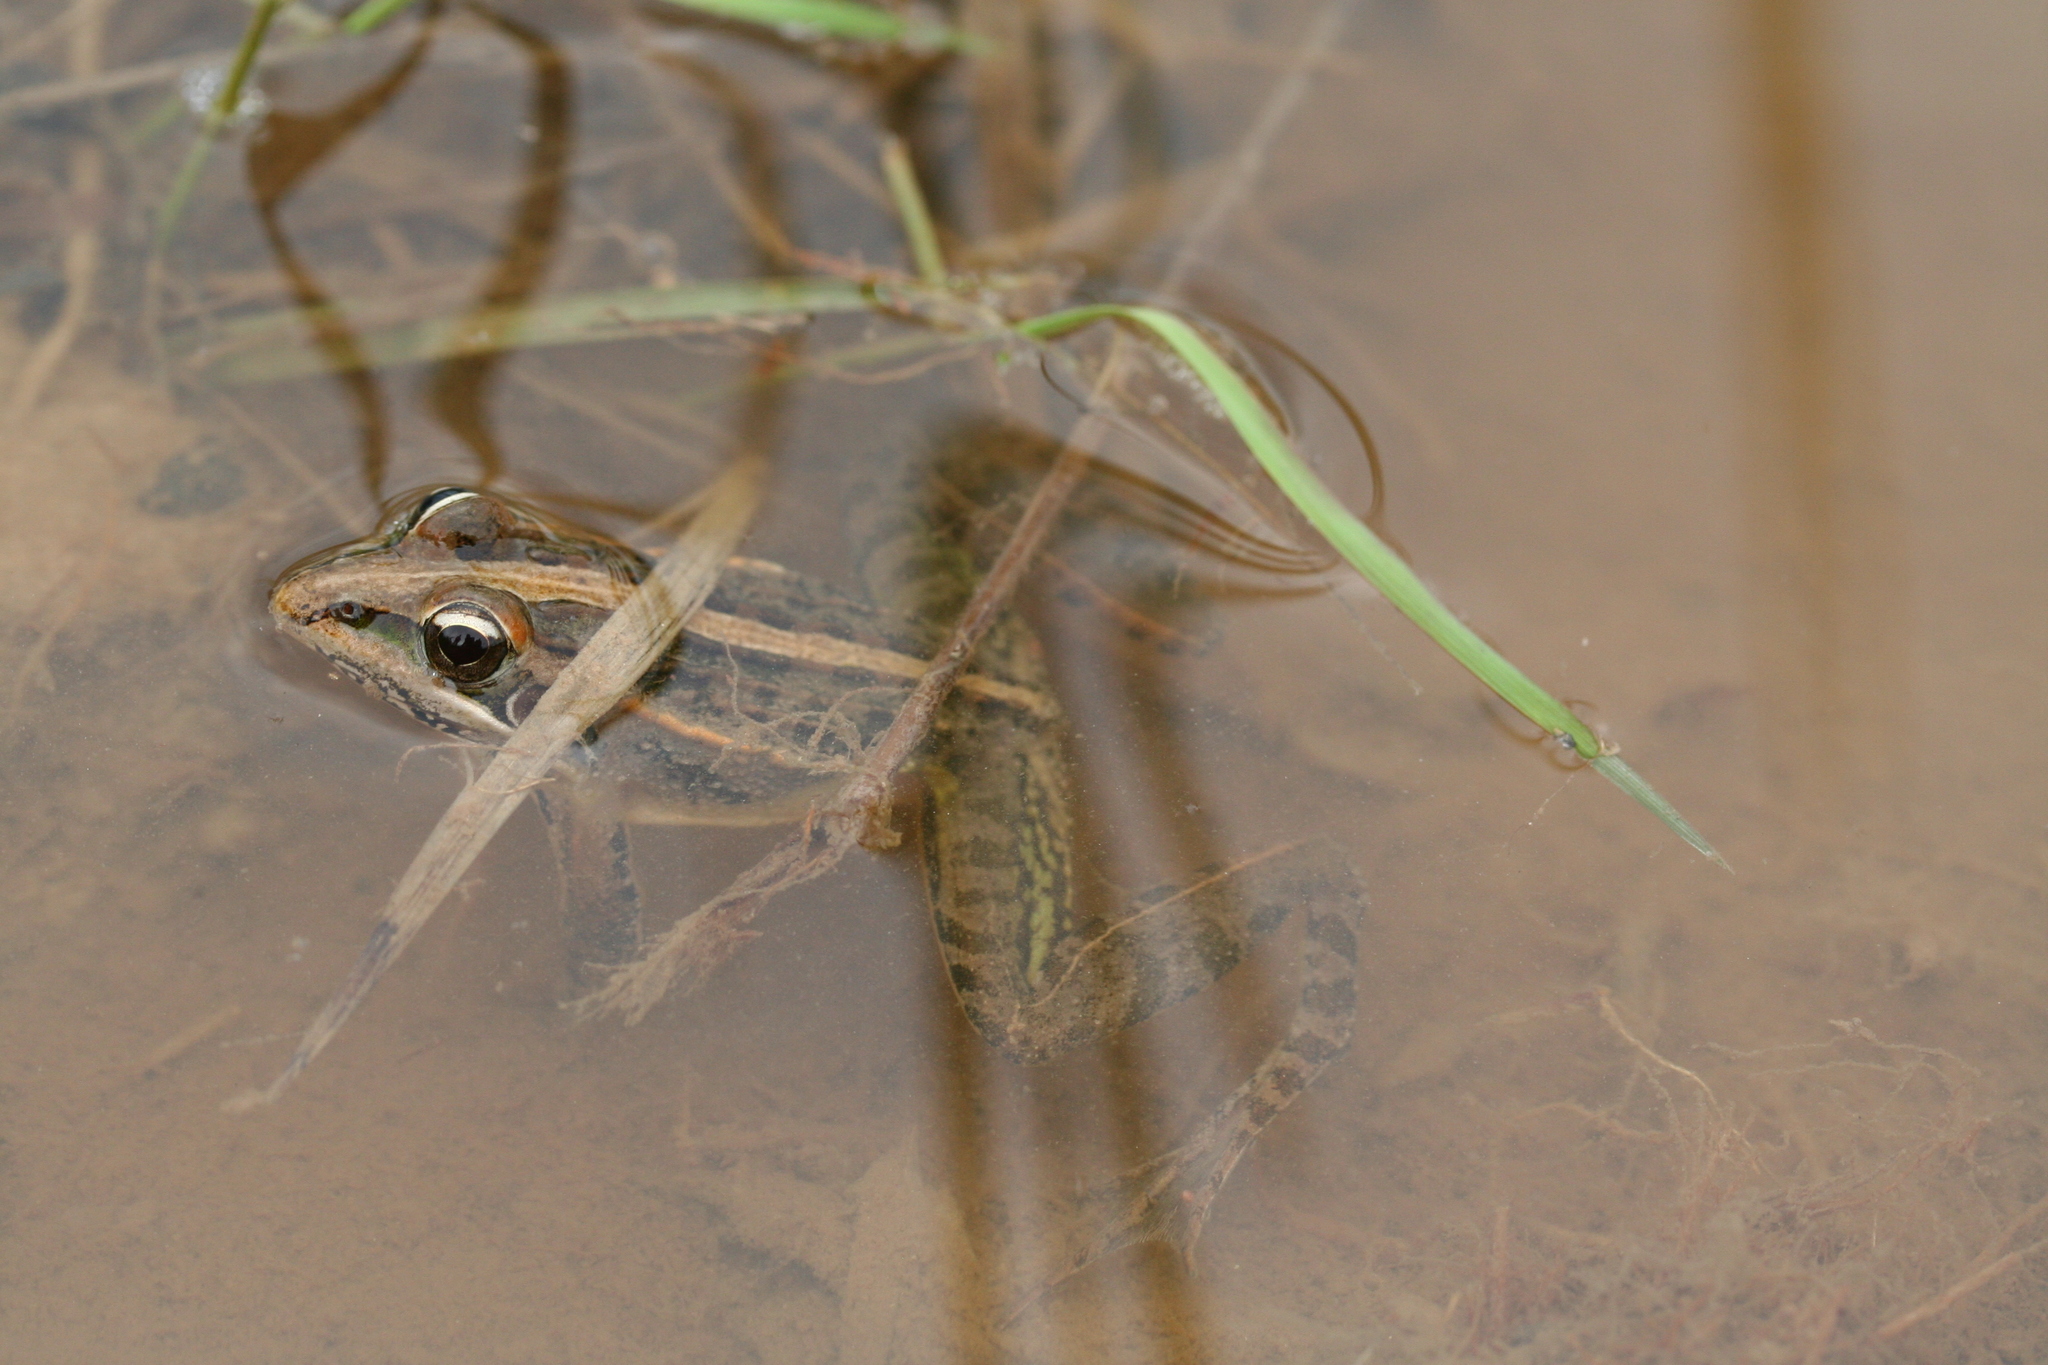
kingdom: Animalia
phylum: Chordata
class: Amphibia
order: Anura
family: Ptychadenidae
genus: Ptychadena
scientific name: Ptychadena mascareniensis
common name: Mascarene grass frog
